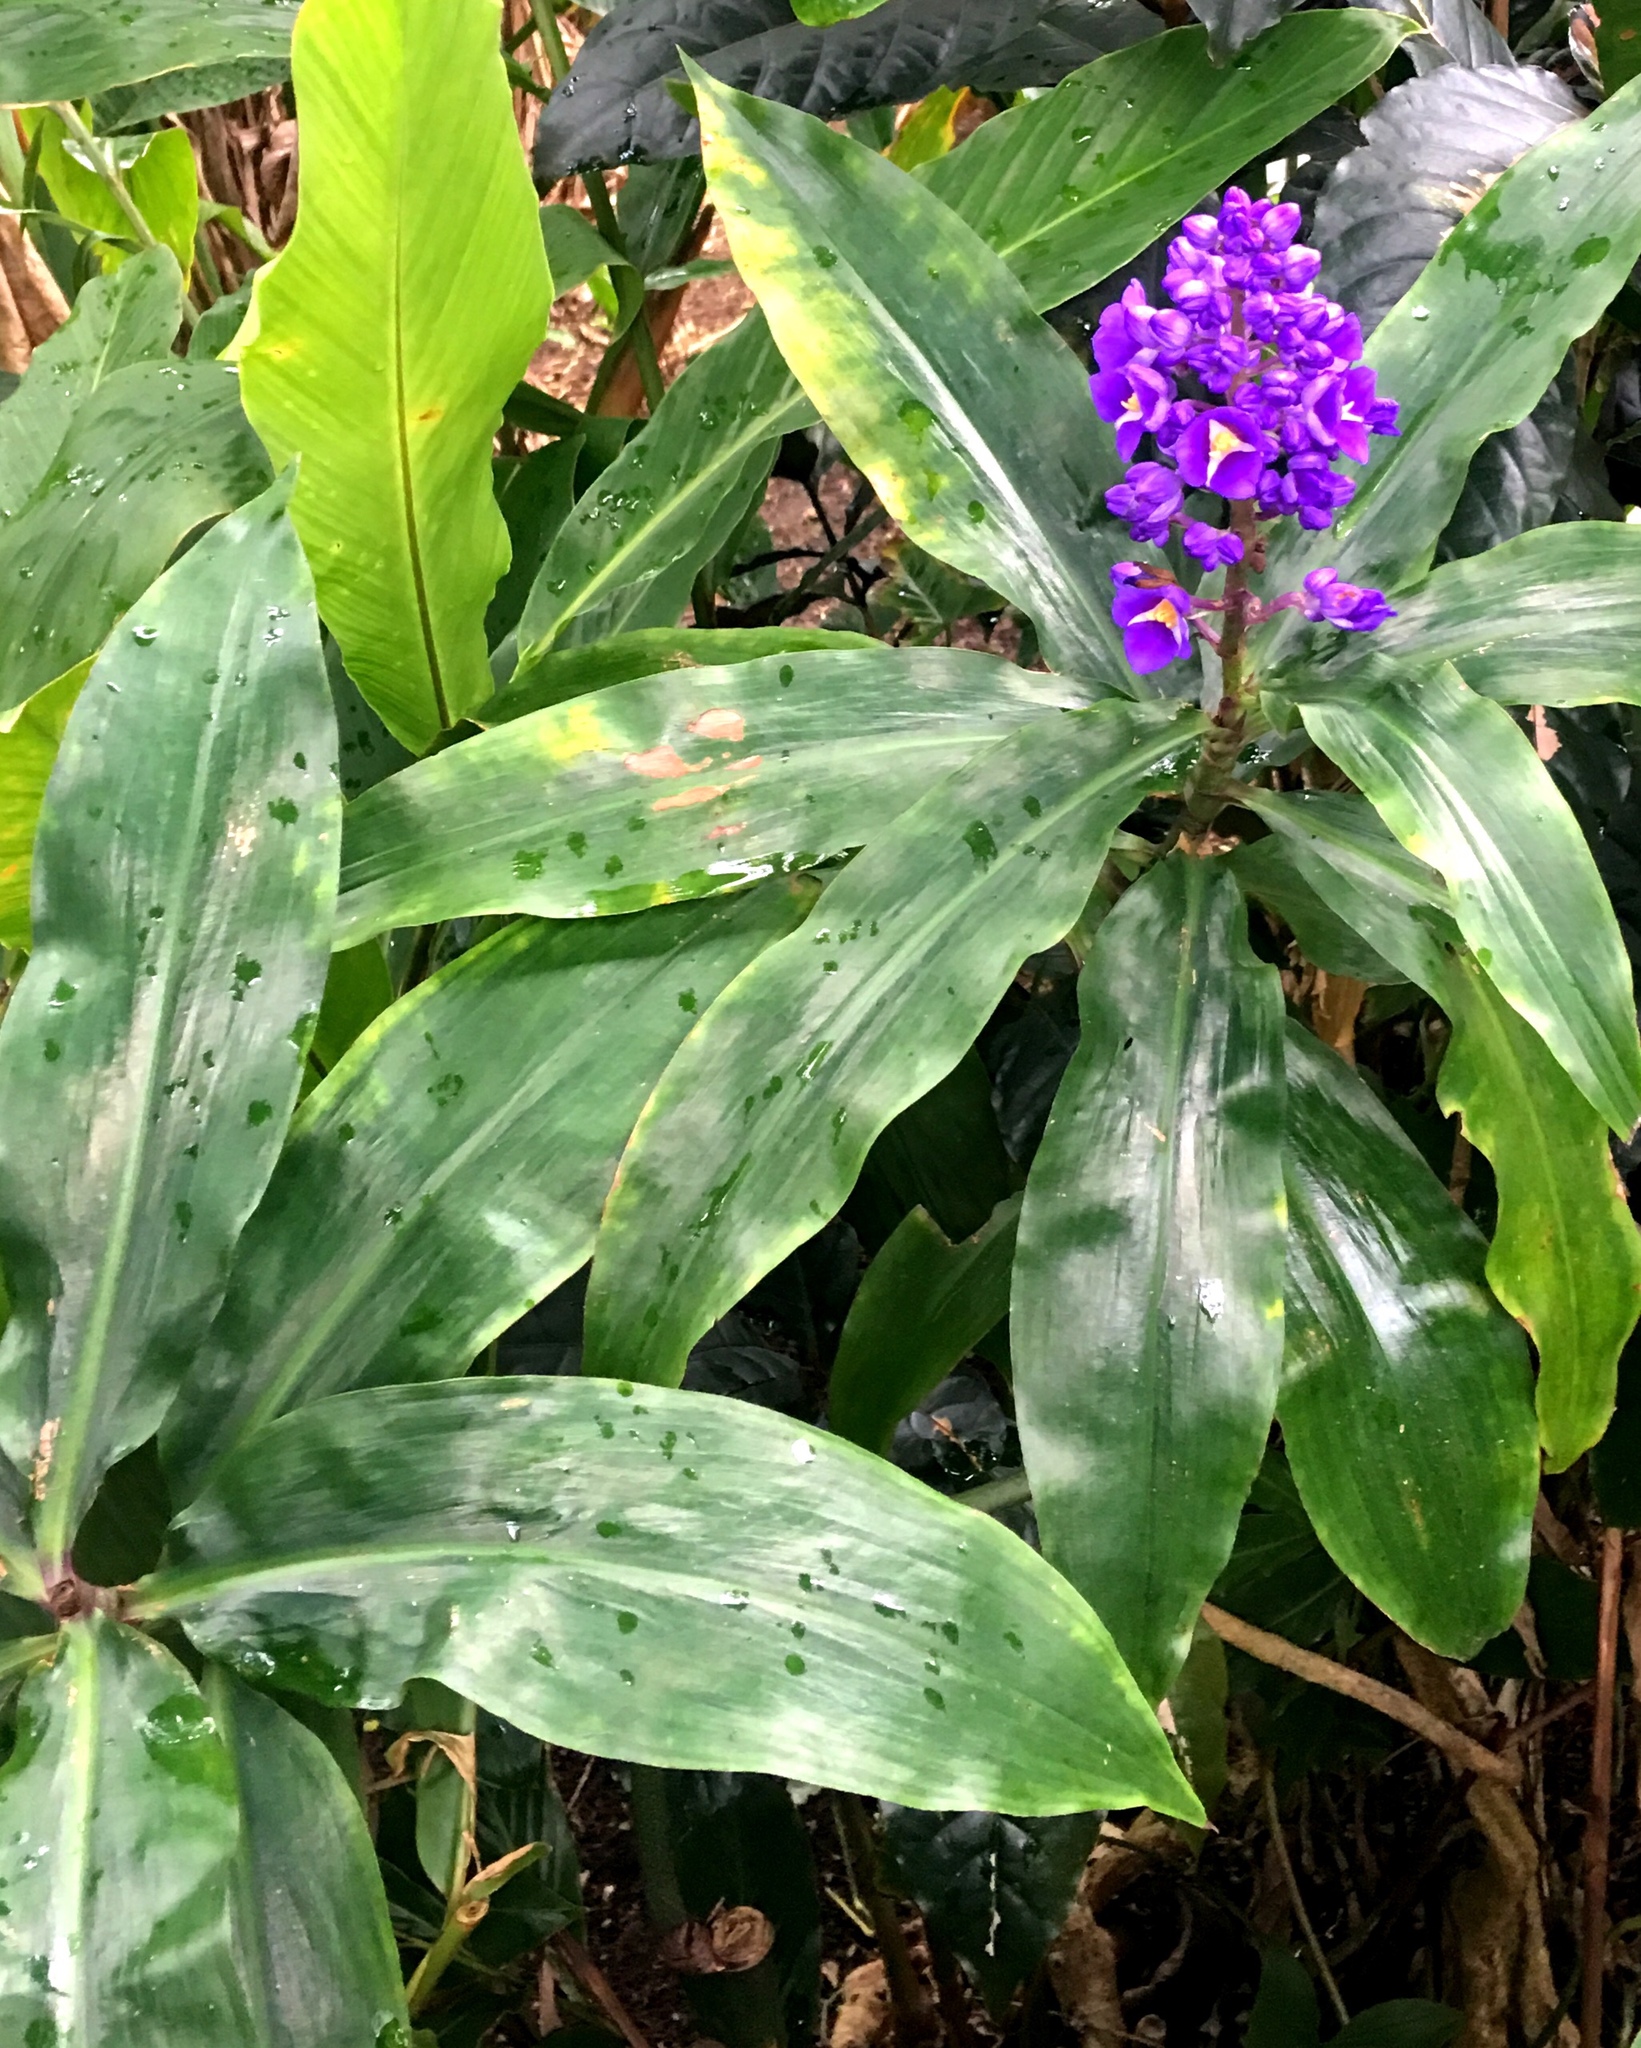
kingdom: Plantae
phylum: Tracheophyta
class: Liliopsida
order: Commelinales
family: Commelinaceae
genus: Dichorisandra
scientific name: Dichorisandra thyrsiflora
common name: Blue-ginger
